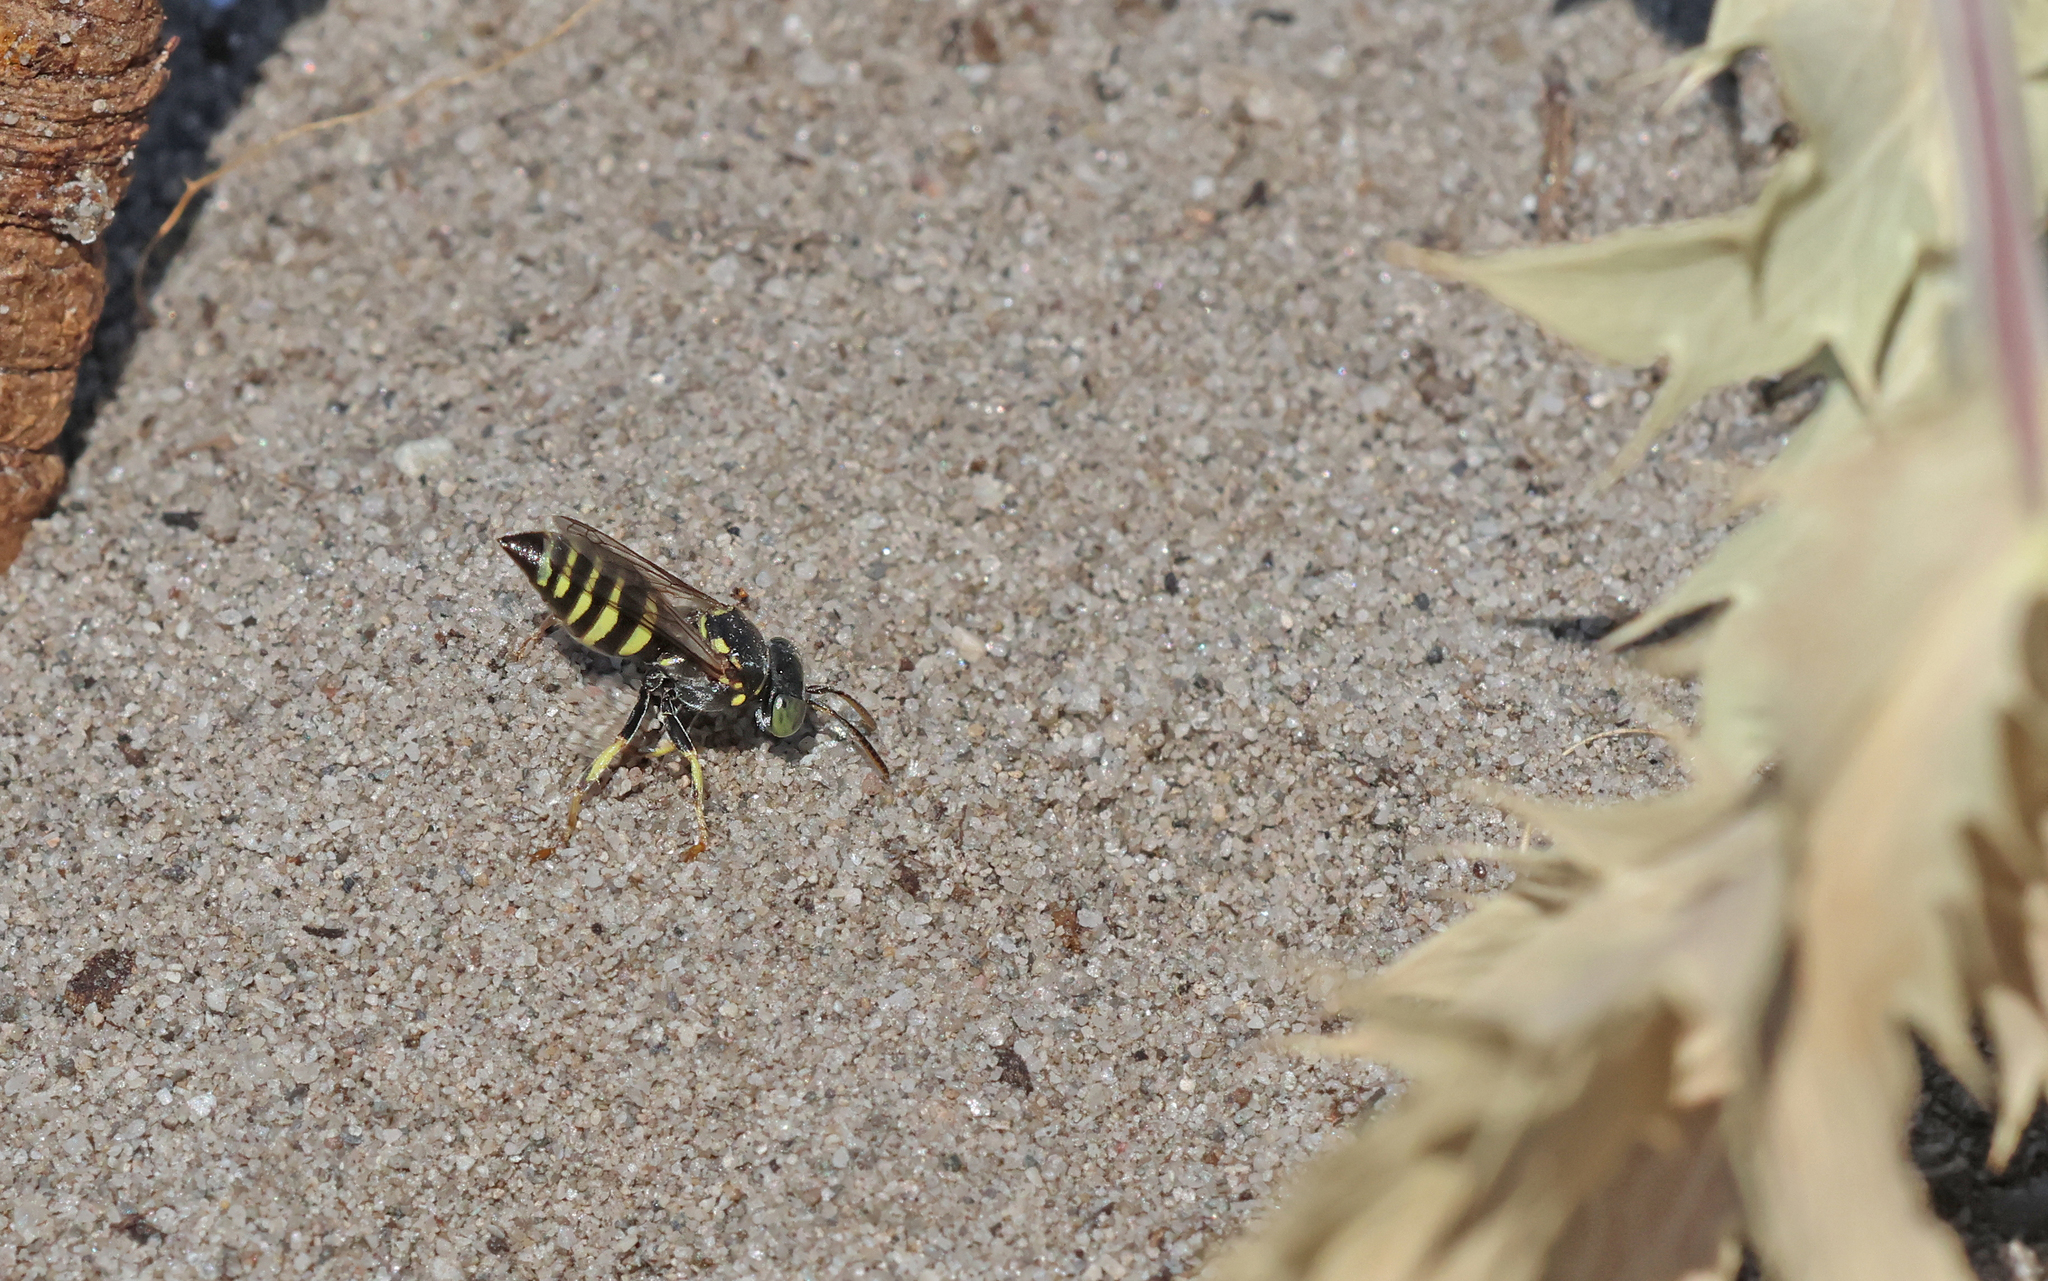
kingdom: Animalia
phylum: Arthropoda
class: Insecta
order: Hymenoptera
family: Crabronidae
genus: Bembecinus
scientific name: Bembecinus tridens
